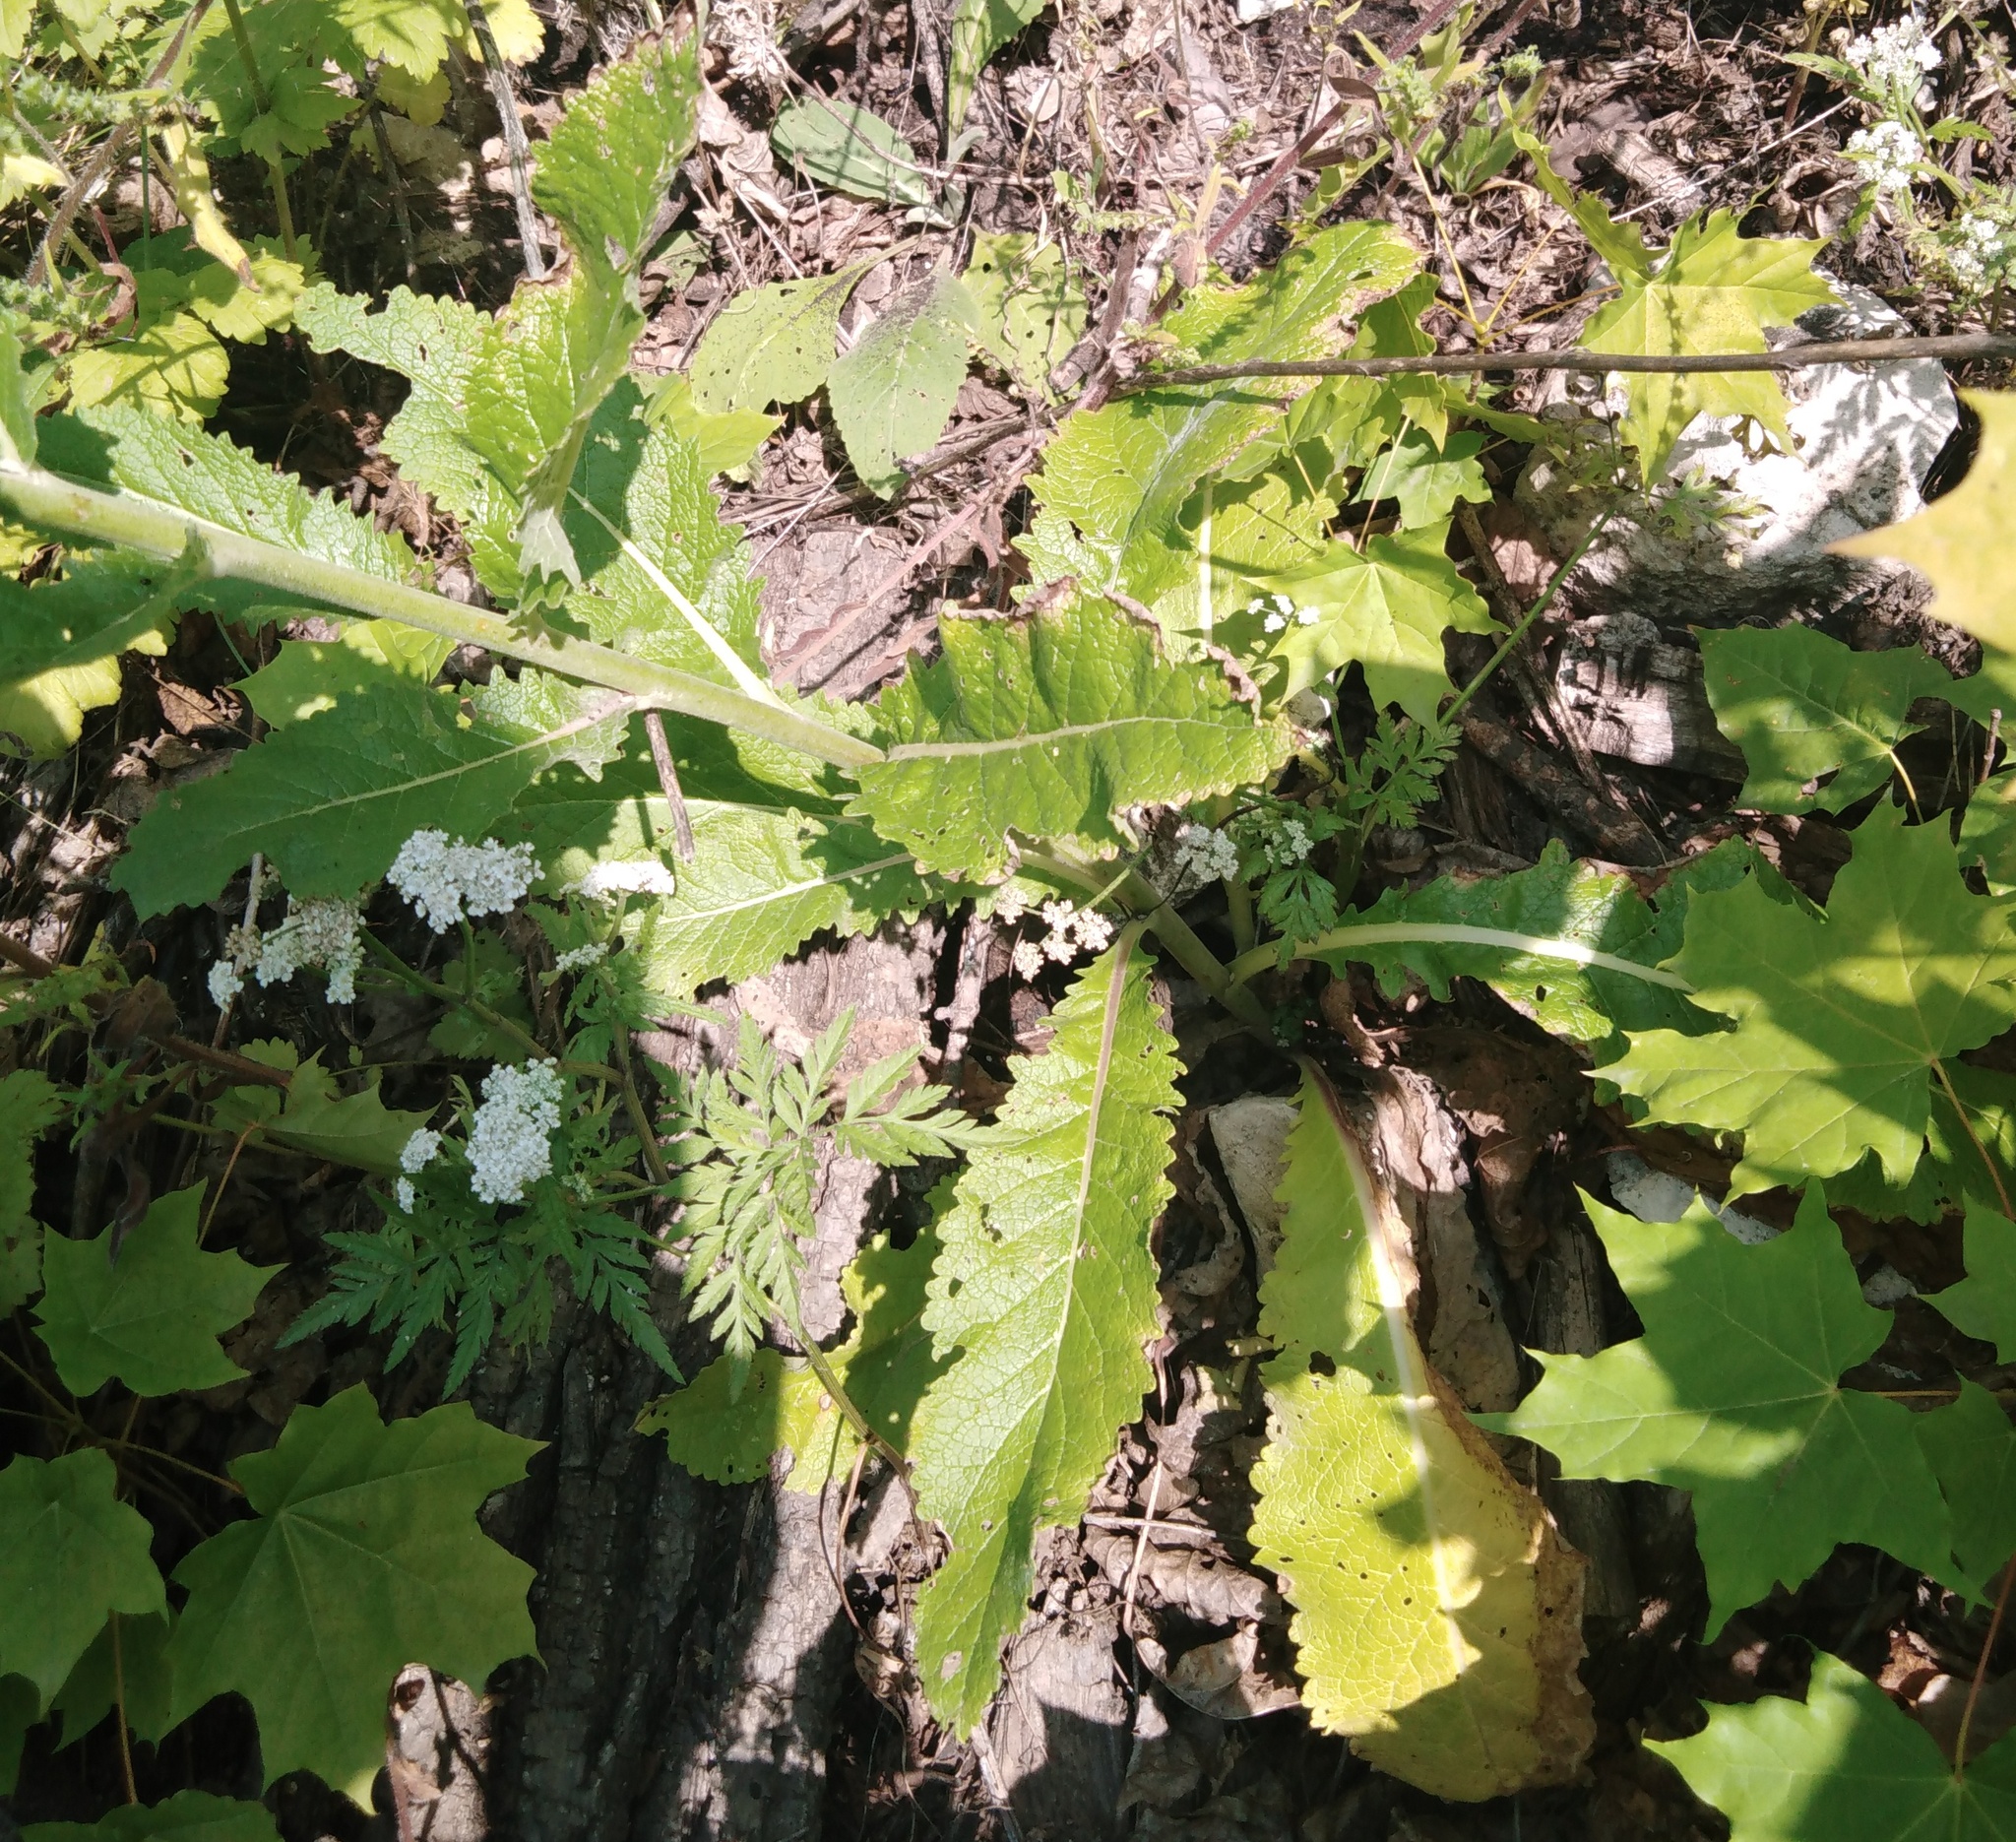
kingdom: Plantae
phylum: Tracheophyta
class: Magnoliopsida
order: Lamiales
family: Scrophulariaceae
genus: Verbascum
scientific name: Verbascum lychnitis
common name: White mullein
